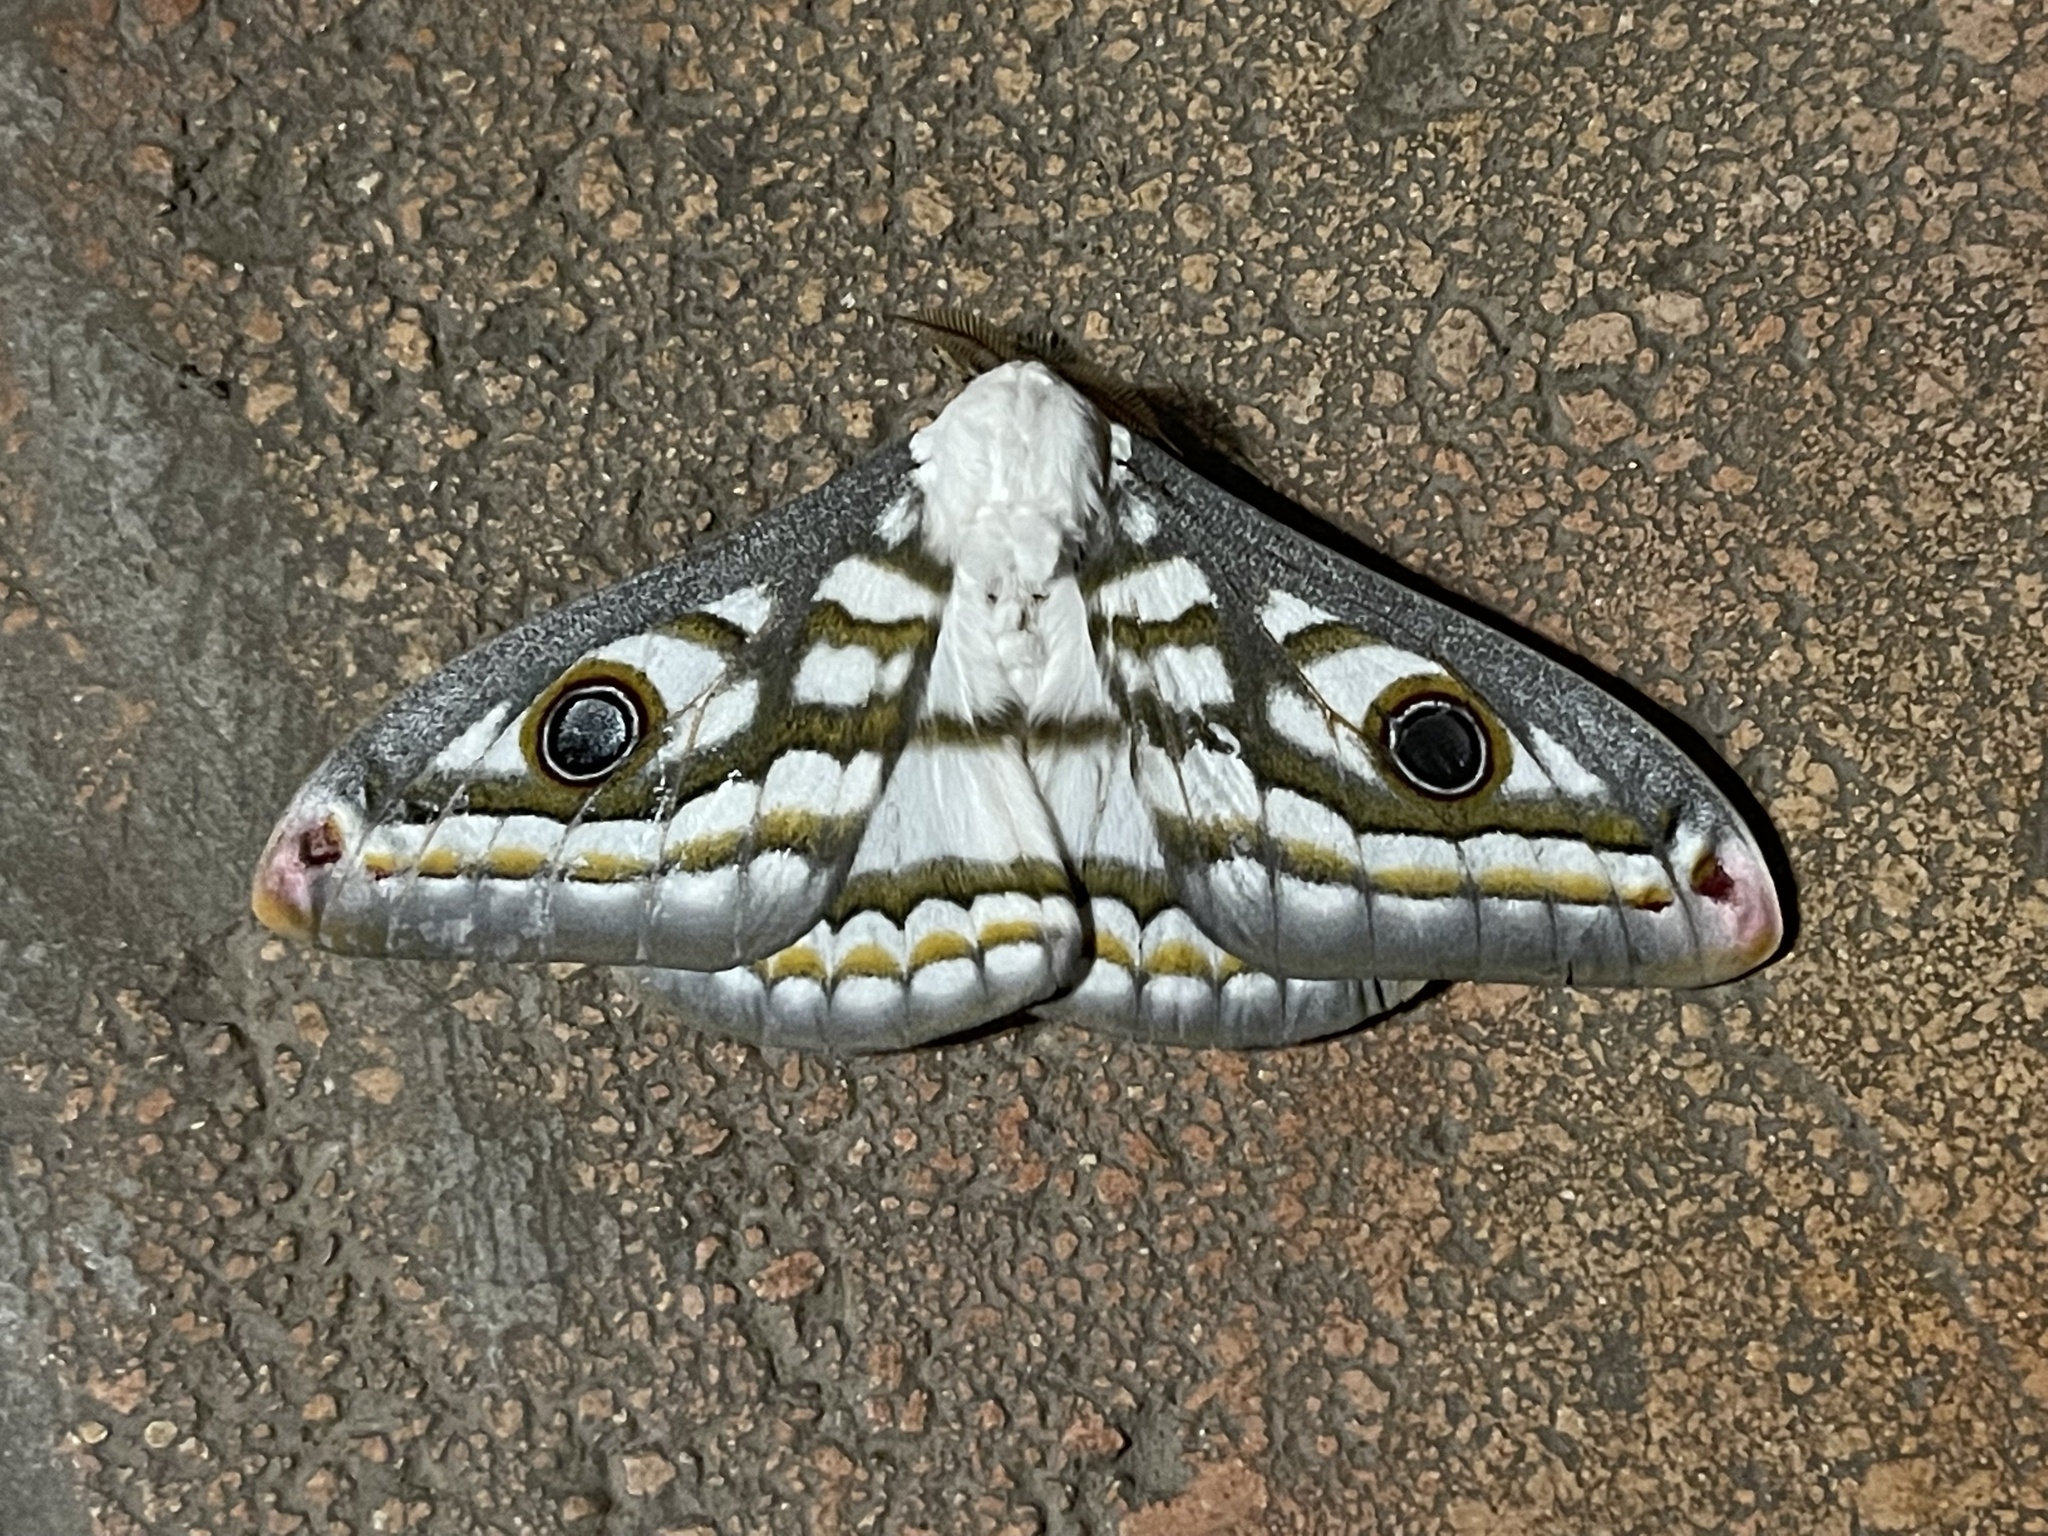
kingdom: Animalia
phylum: Arthropoda
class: Insecta
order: Lepidoptera
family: Saturniidae
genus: Heniocha
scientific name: Heniocha marnois
